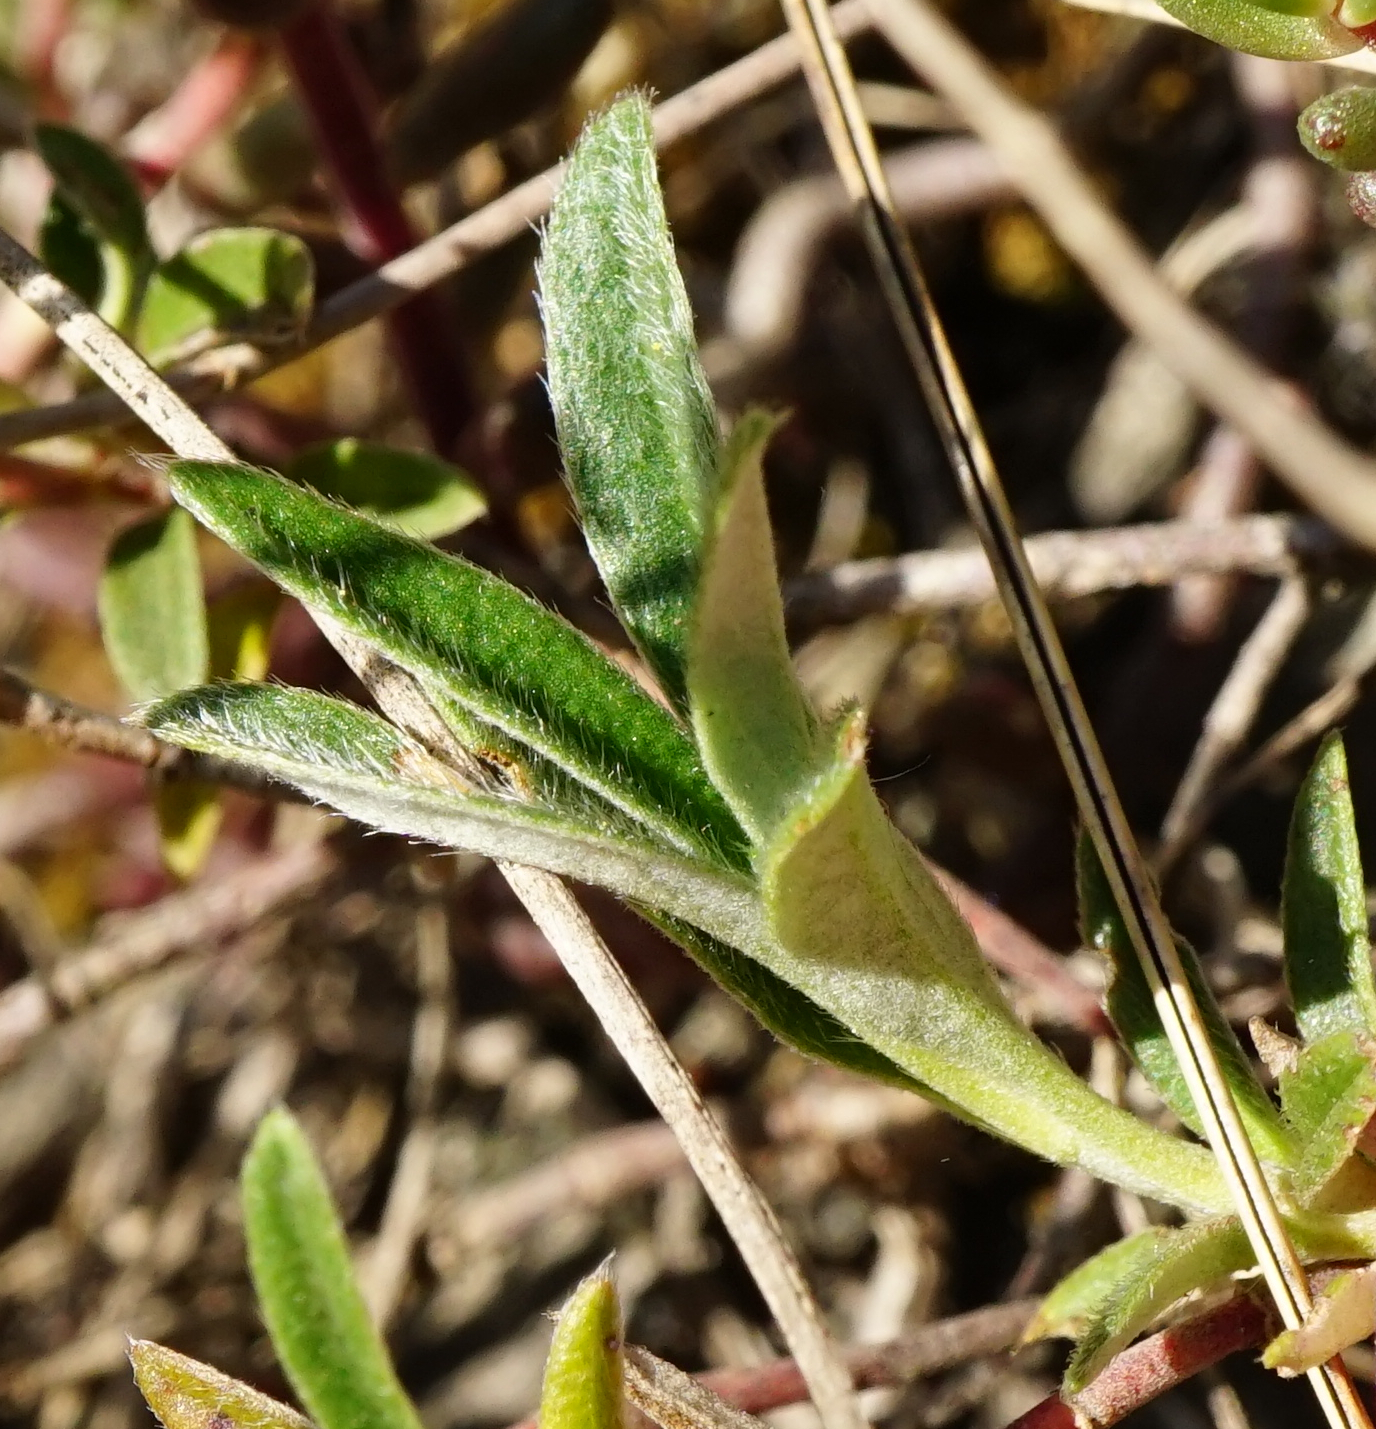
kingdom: Plantae
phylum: Tracheophyta
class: Magnoliopsida
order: Malvales
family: Cistaceae
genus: Helianthemum
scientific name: Helianthemum canum
